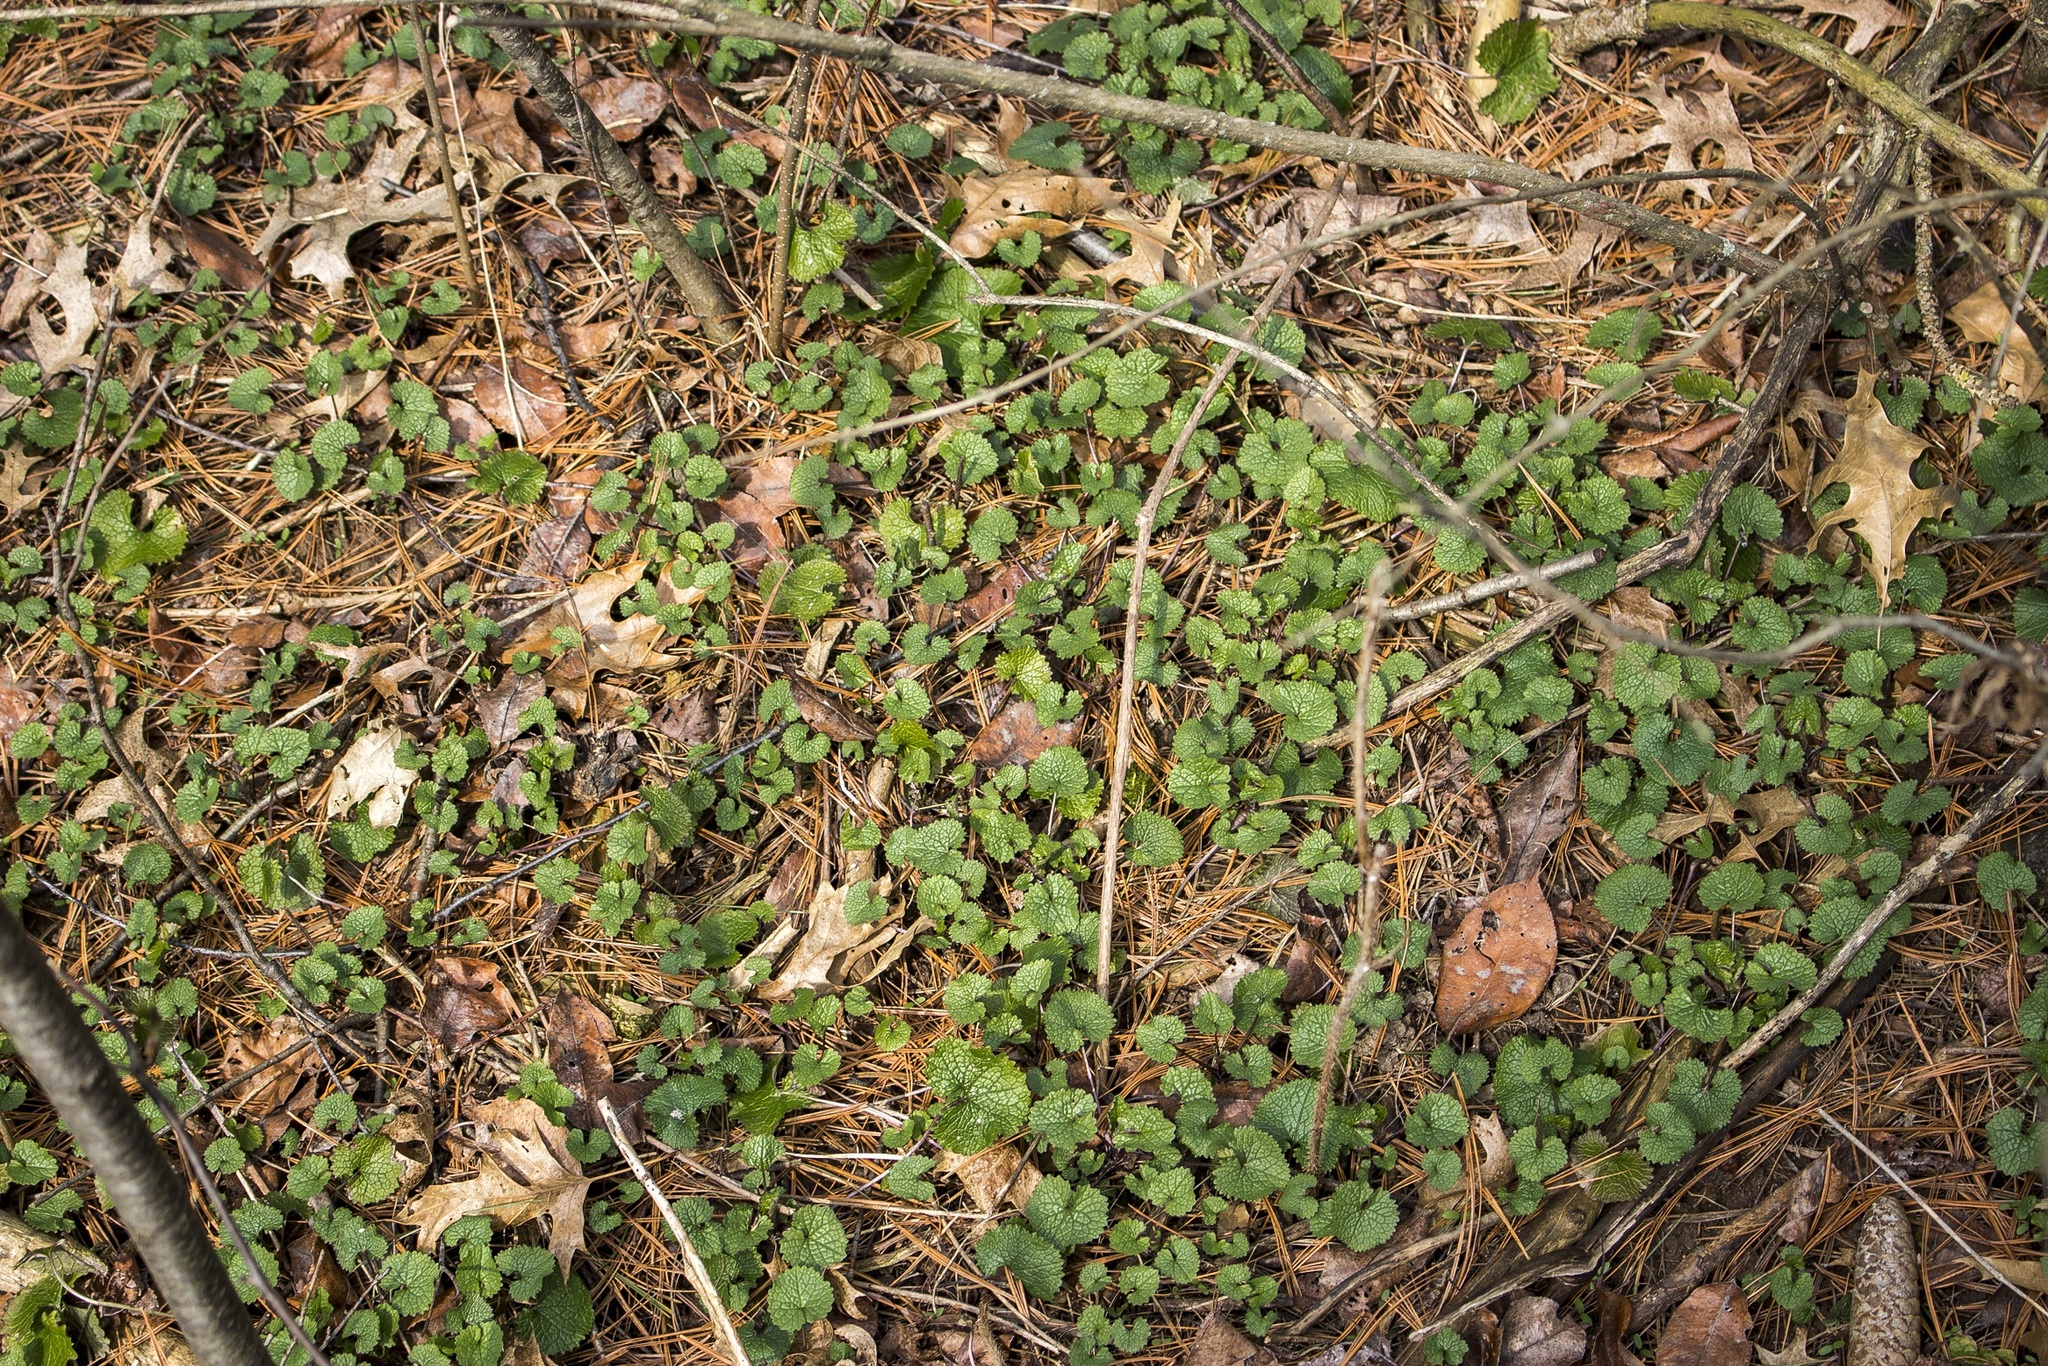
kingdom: Plantae
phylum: Tracheophyta
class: Magnoliopsida
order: Brassicales
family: Brassicaceae
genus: Alliaria
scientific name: Alliaria petiolata
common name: Garlic mustard
